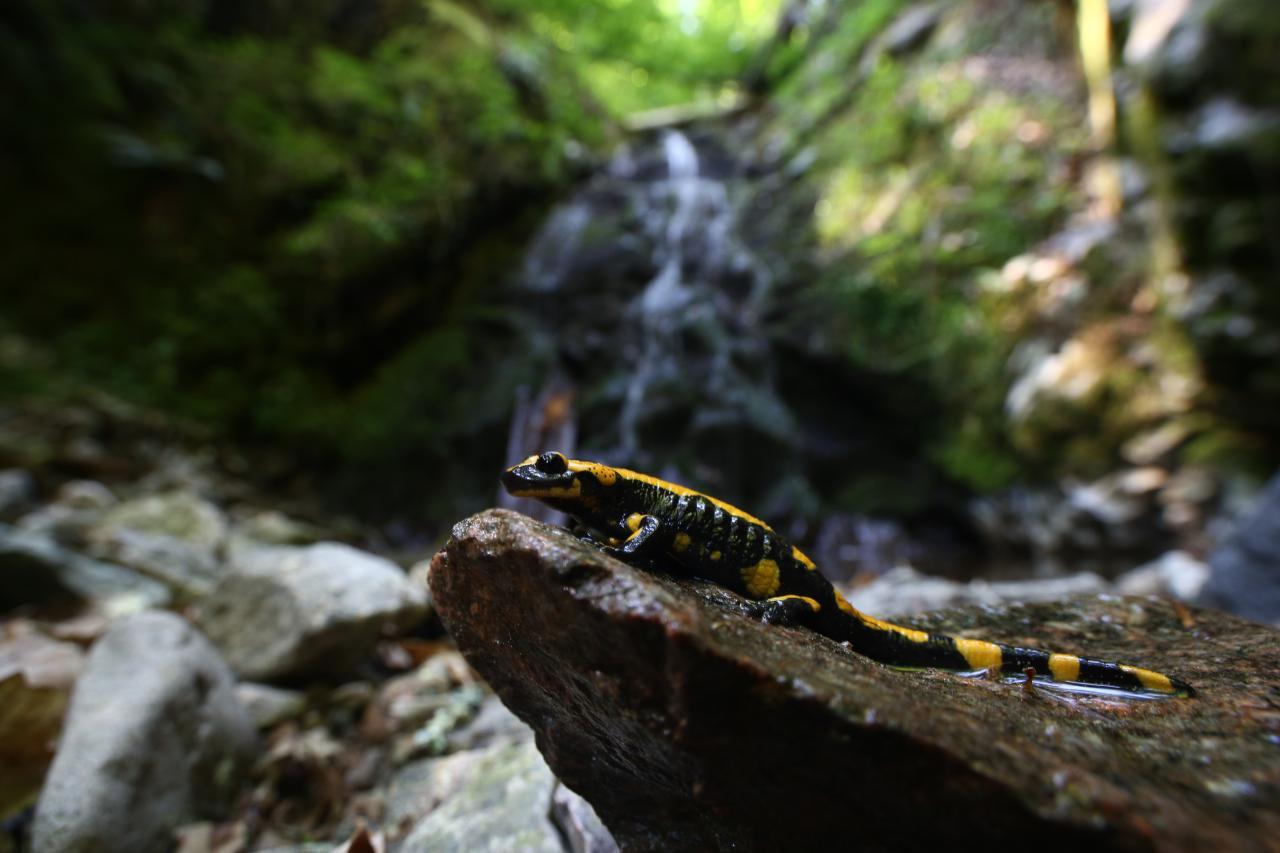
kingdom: Animalia
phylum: Chordata
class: Amphibia
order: Caudata
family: Salamandridae
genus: Salamandra
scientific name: Salamandra salamandra
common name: Fire salamander
